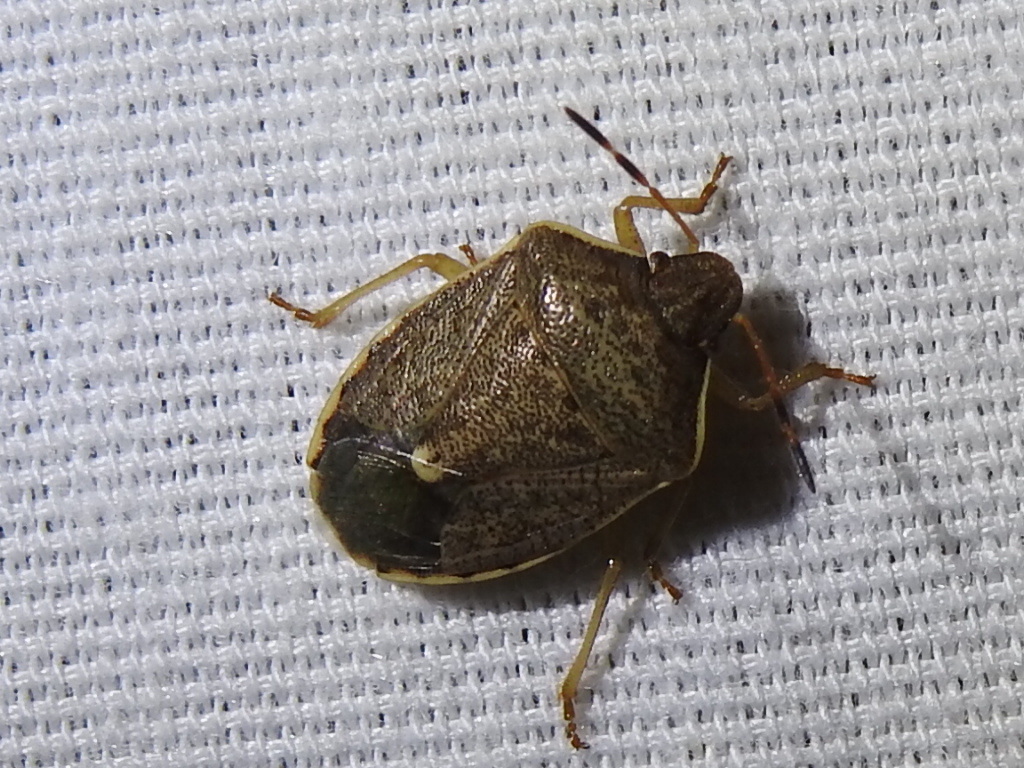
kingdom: Animalia
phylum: Arthropoda
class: Insecta
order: Hemiptera
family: Pentatomidae
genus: Holcostethus
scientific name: Holcostethus limbolarius
